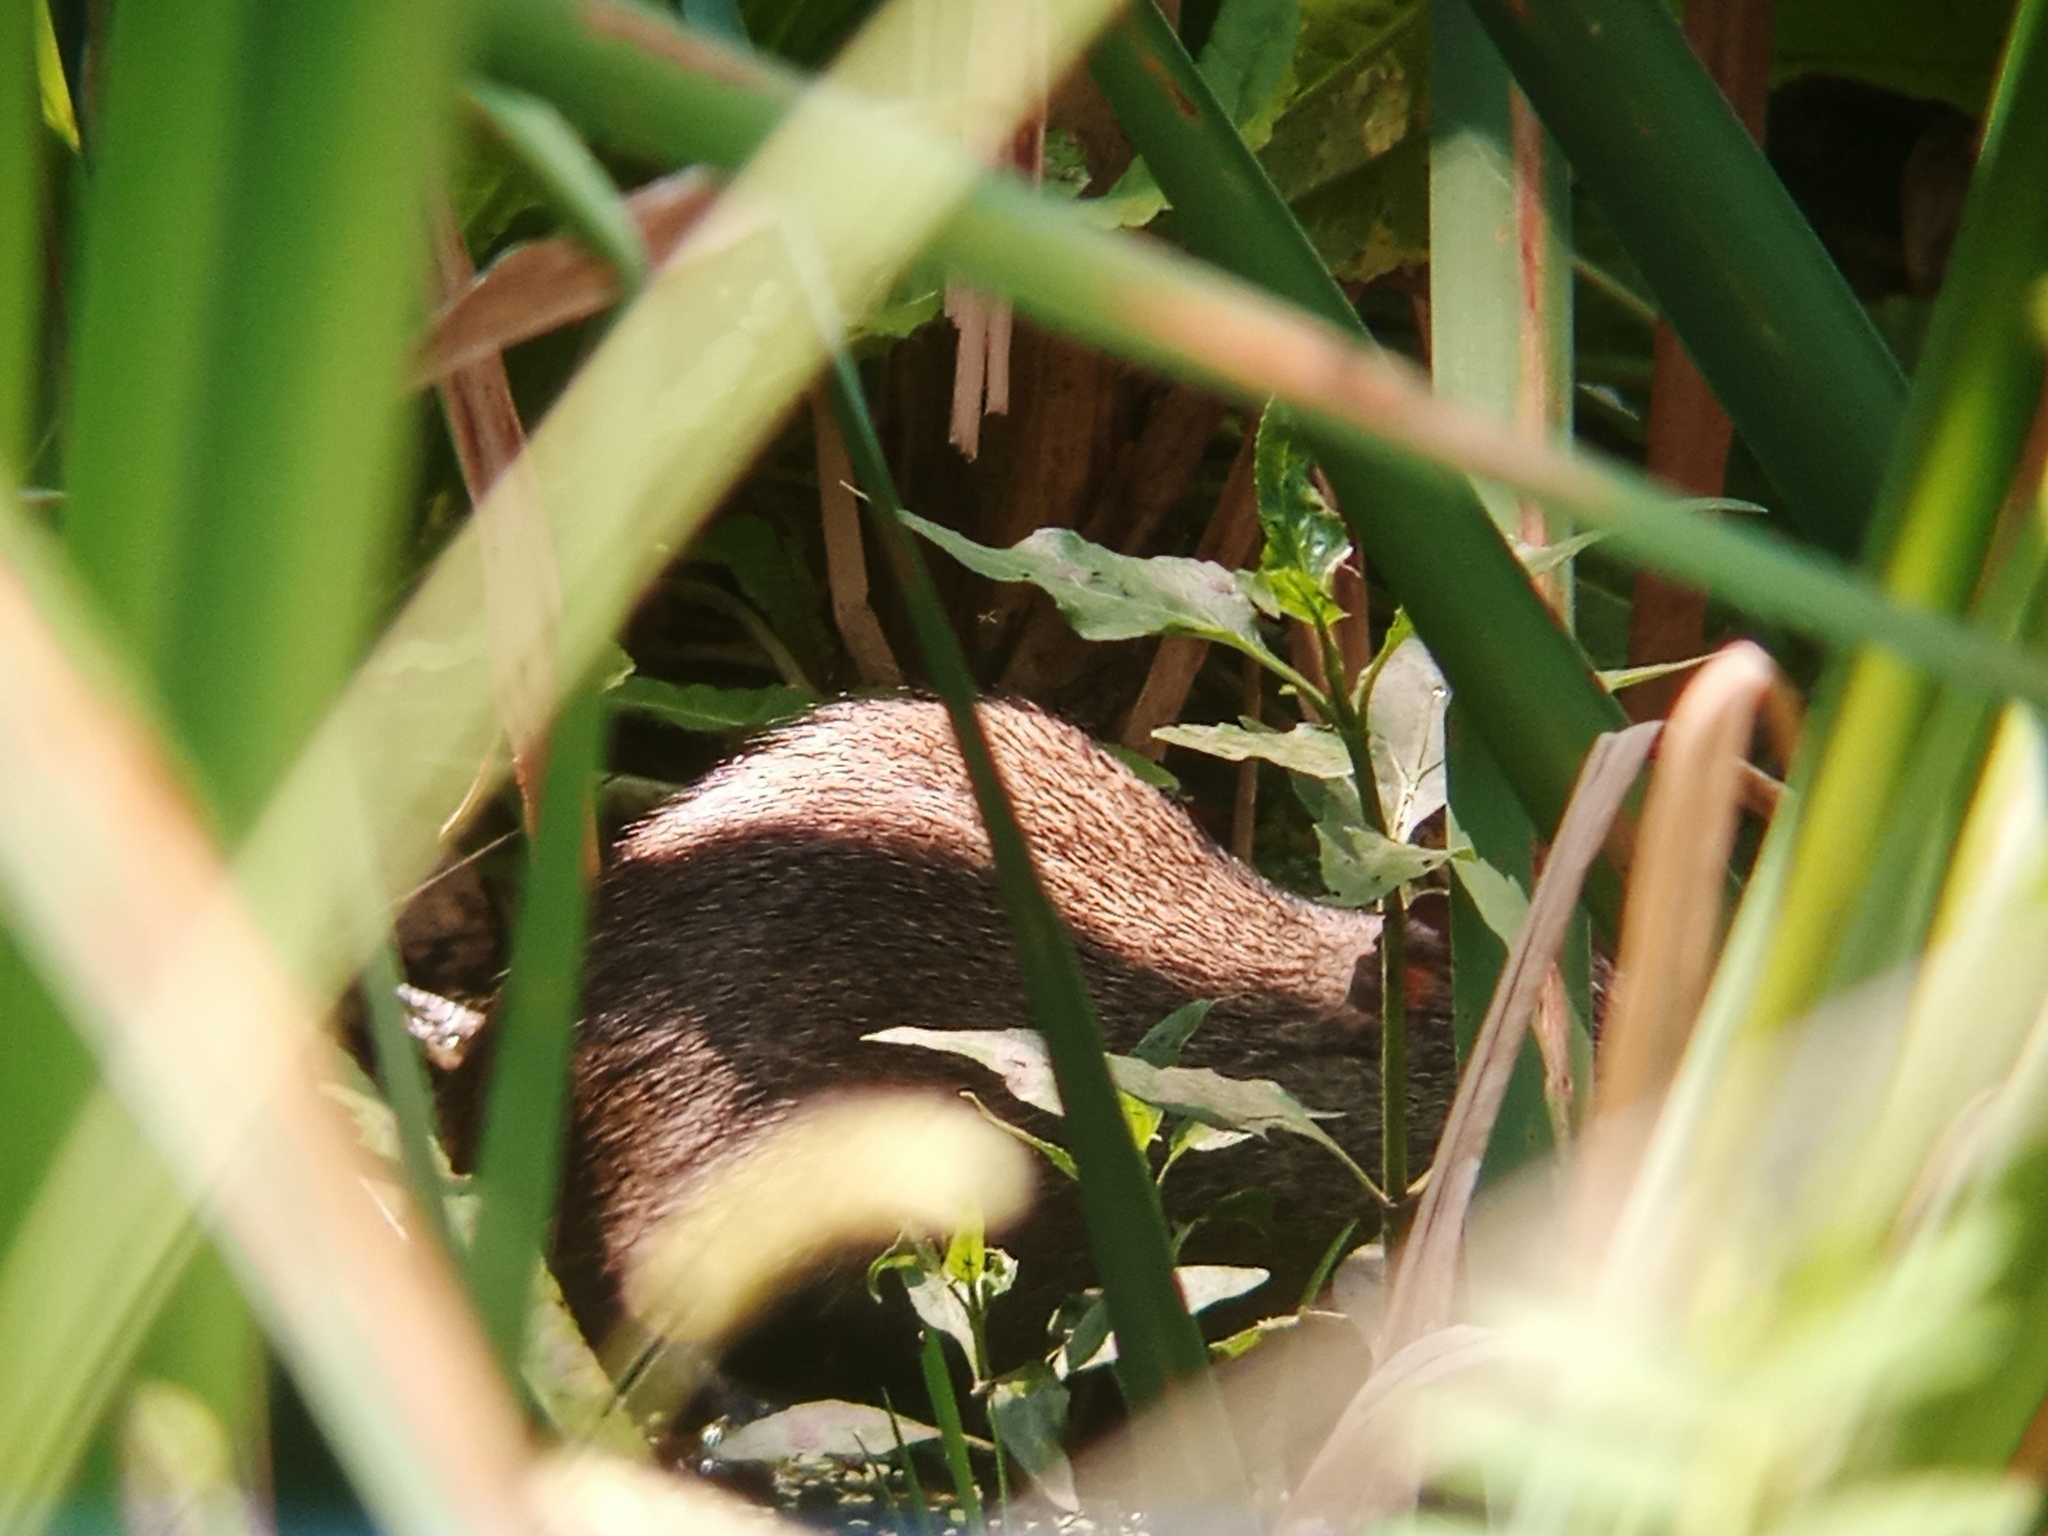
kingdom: Animalia
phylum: Chordata
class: Mammalia
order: Rodentia
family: Caviidae
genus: Cavia
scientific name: Cavia aperea
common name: Brazilian guinea pig
